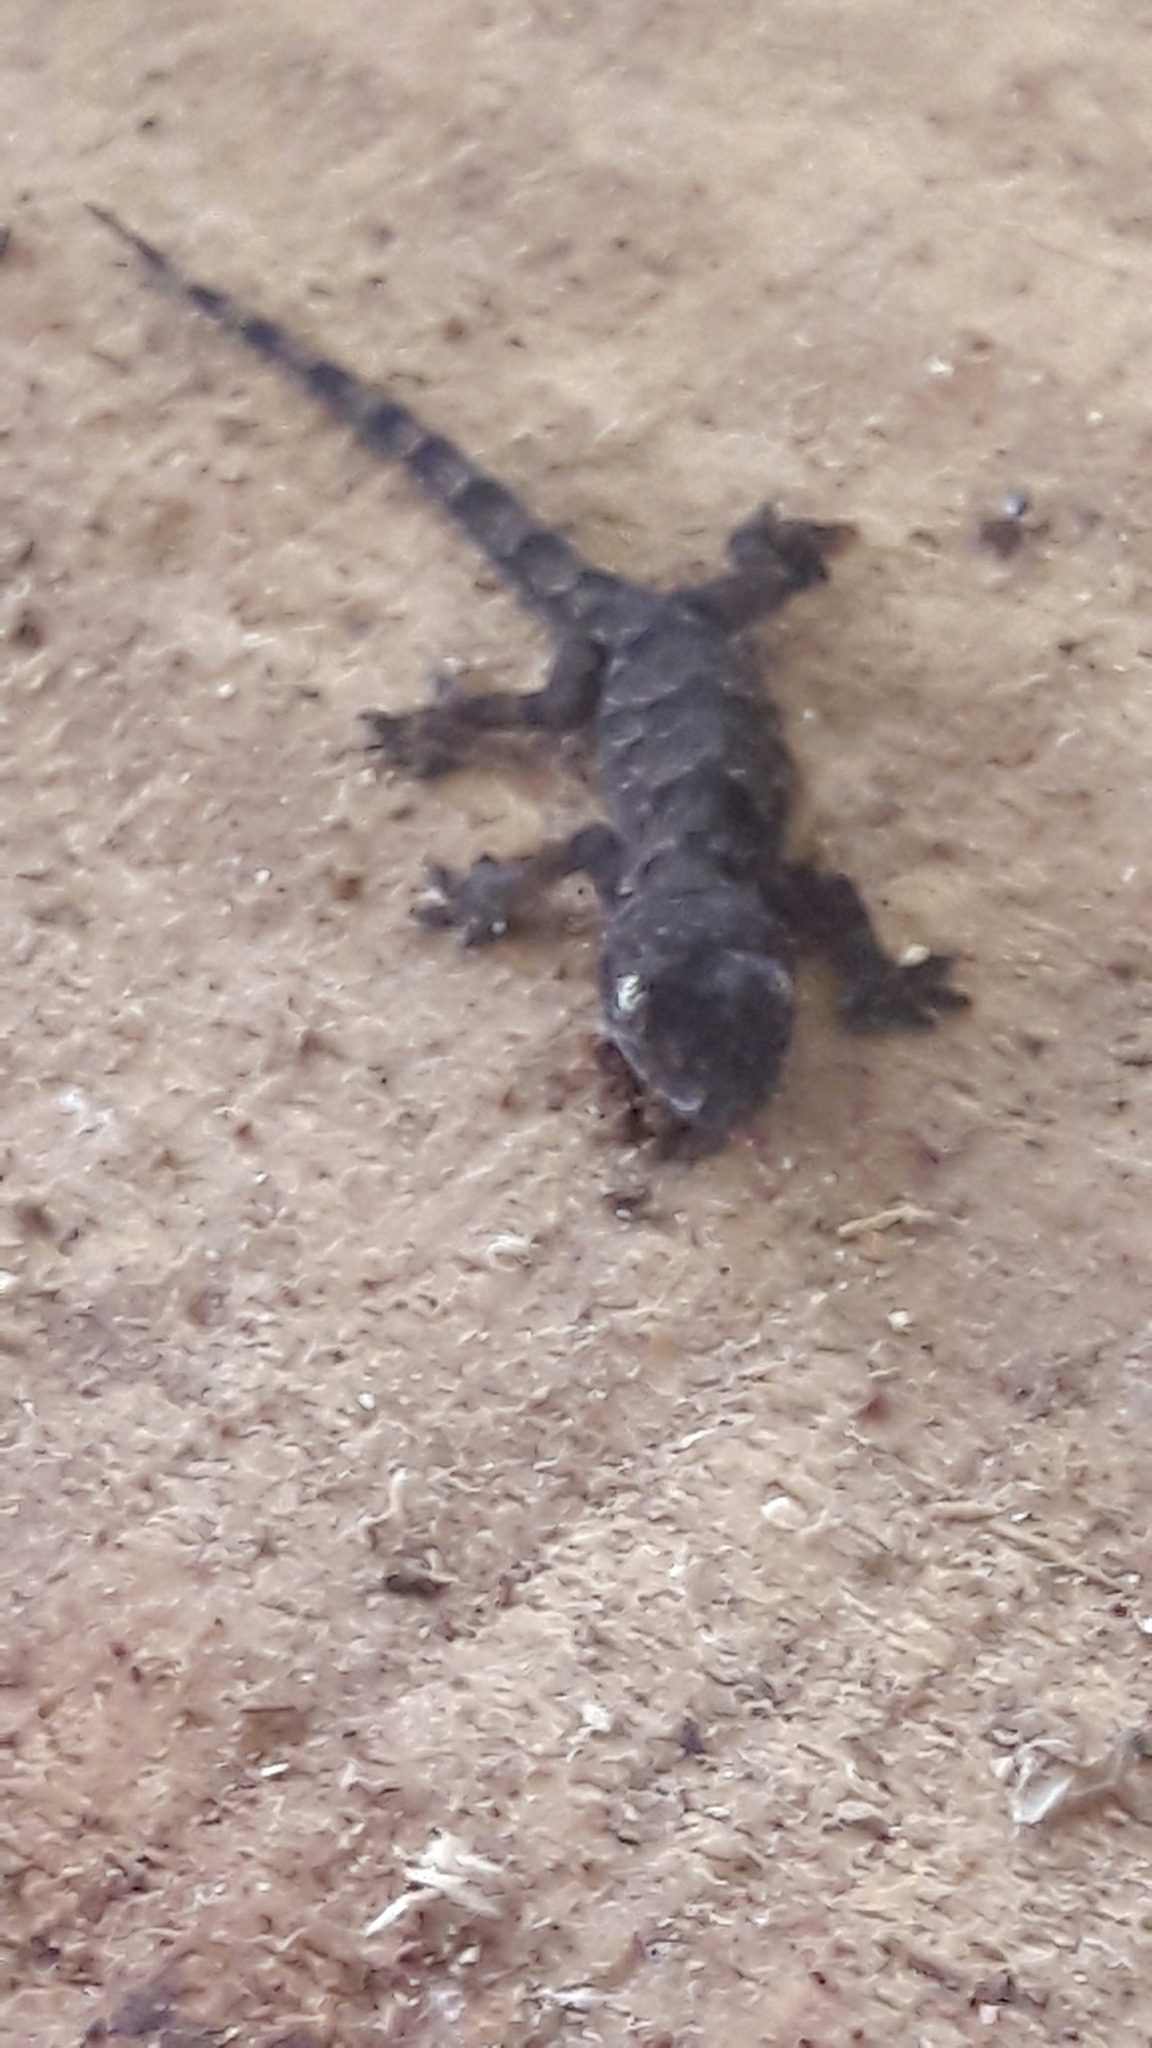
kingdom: Animalia
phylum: Chordata
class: Squamata
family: Gekkonidae
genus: Hemidactylus
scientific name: Hemidactylus mabouia
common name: House gecko
